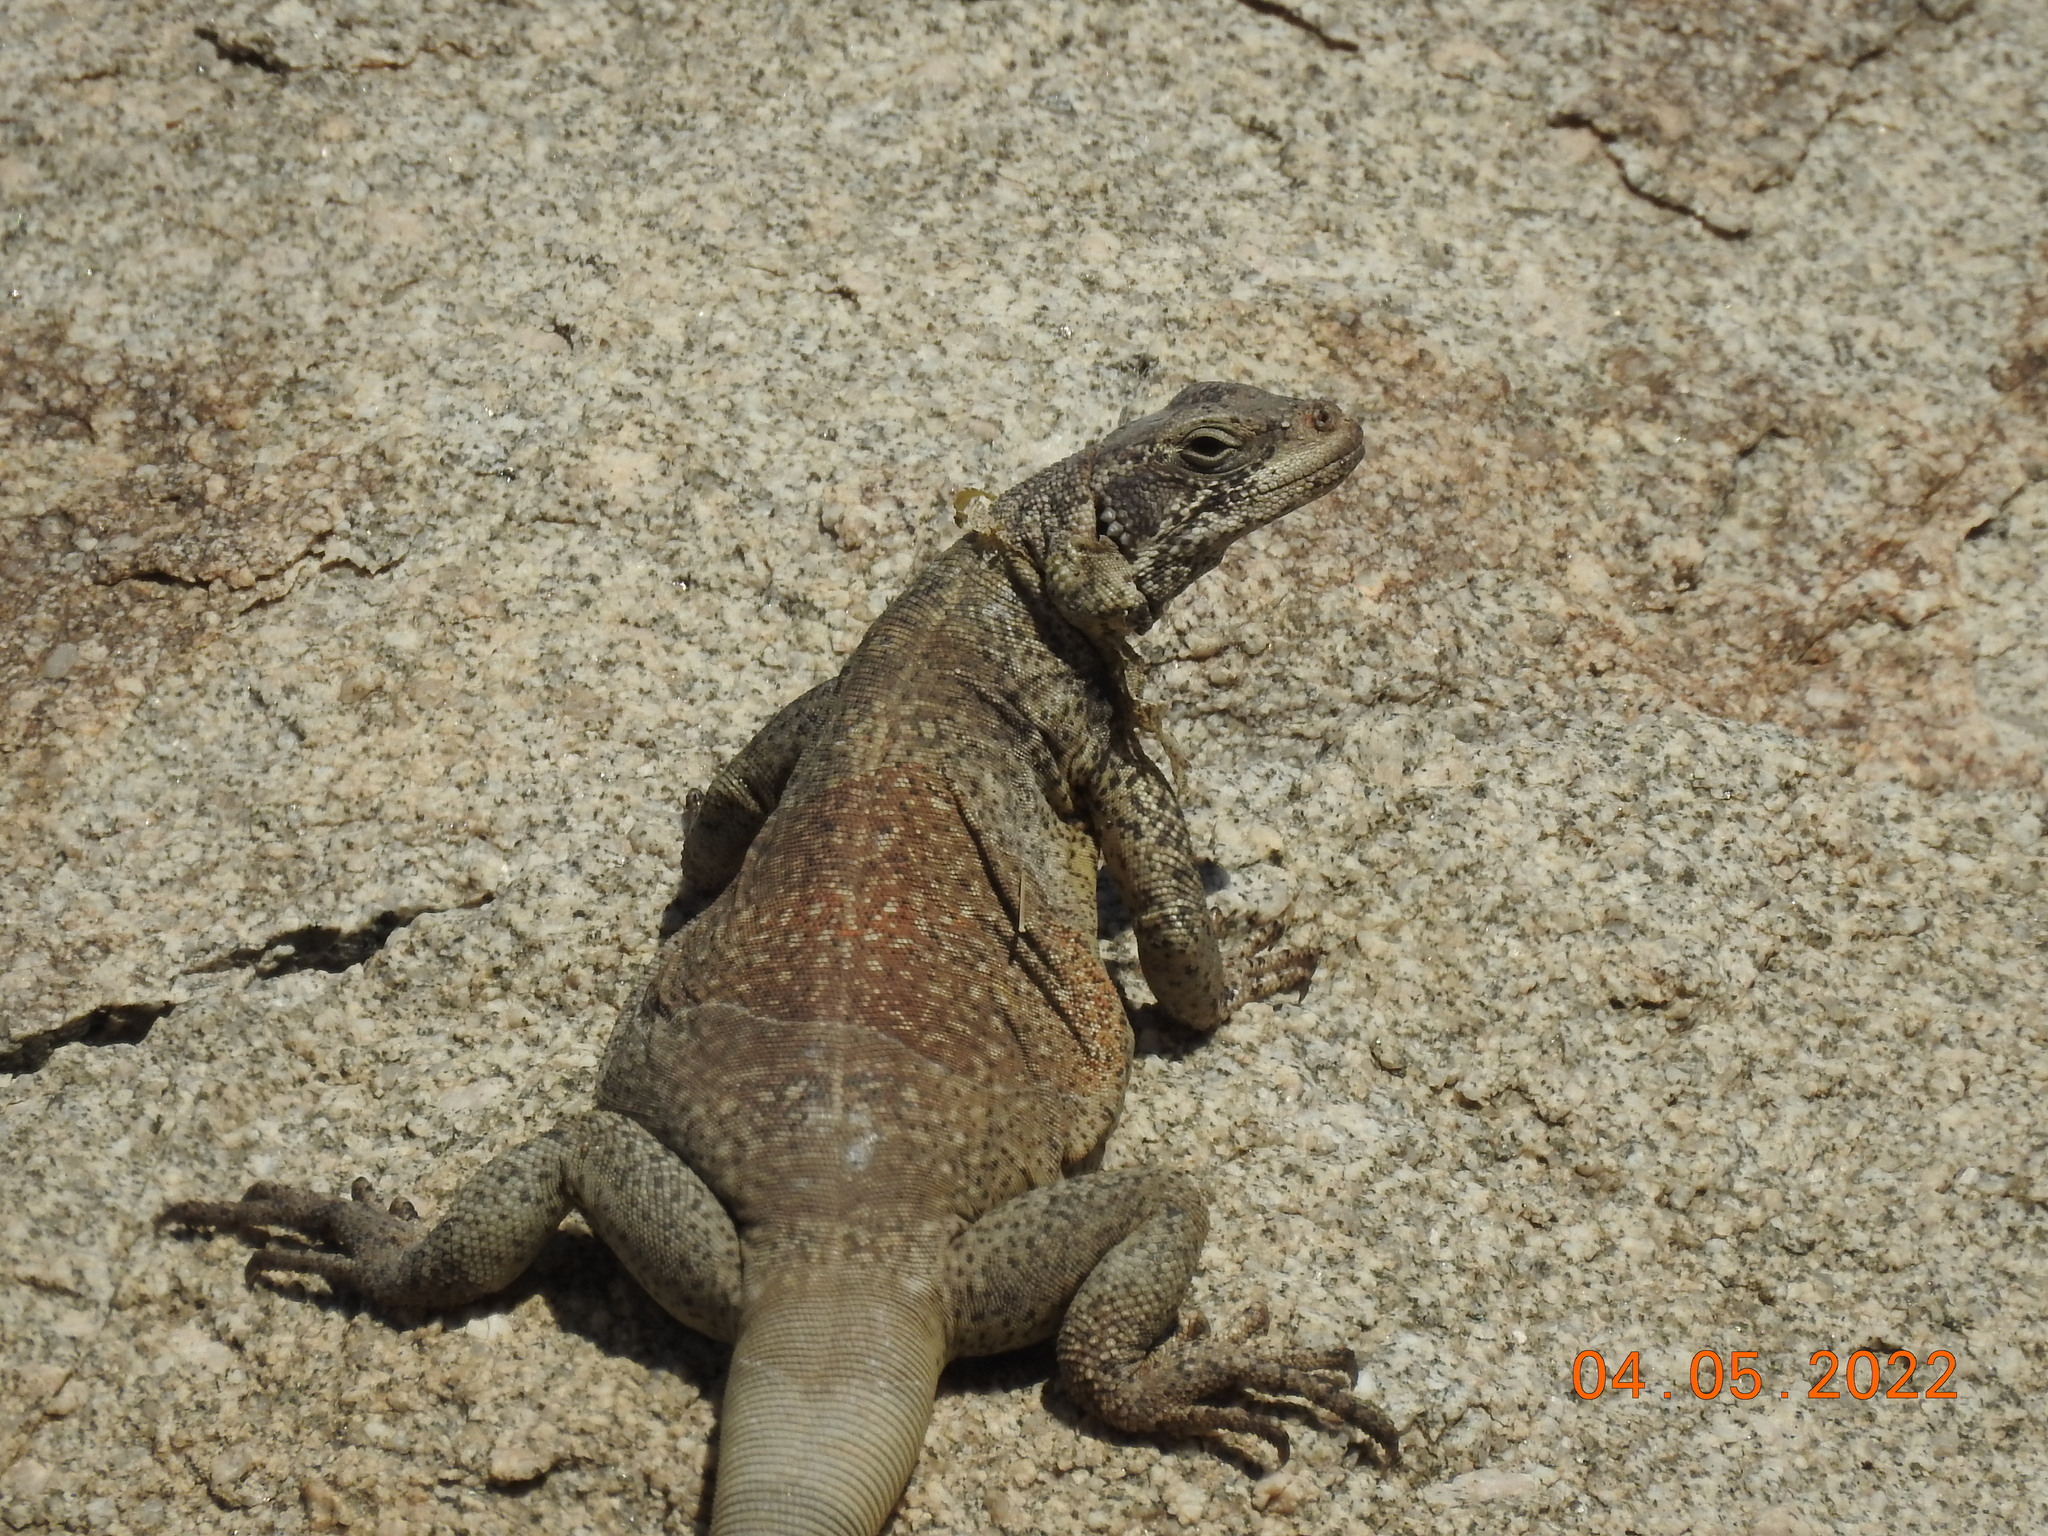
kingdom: Animalia
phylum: Chordata
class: Squamata
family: Iguanidae
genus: Sauromalus
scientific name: Sauromalus ater
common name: Northern chuckwalla
